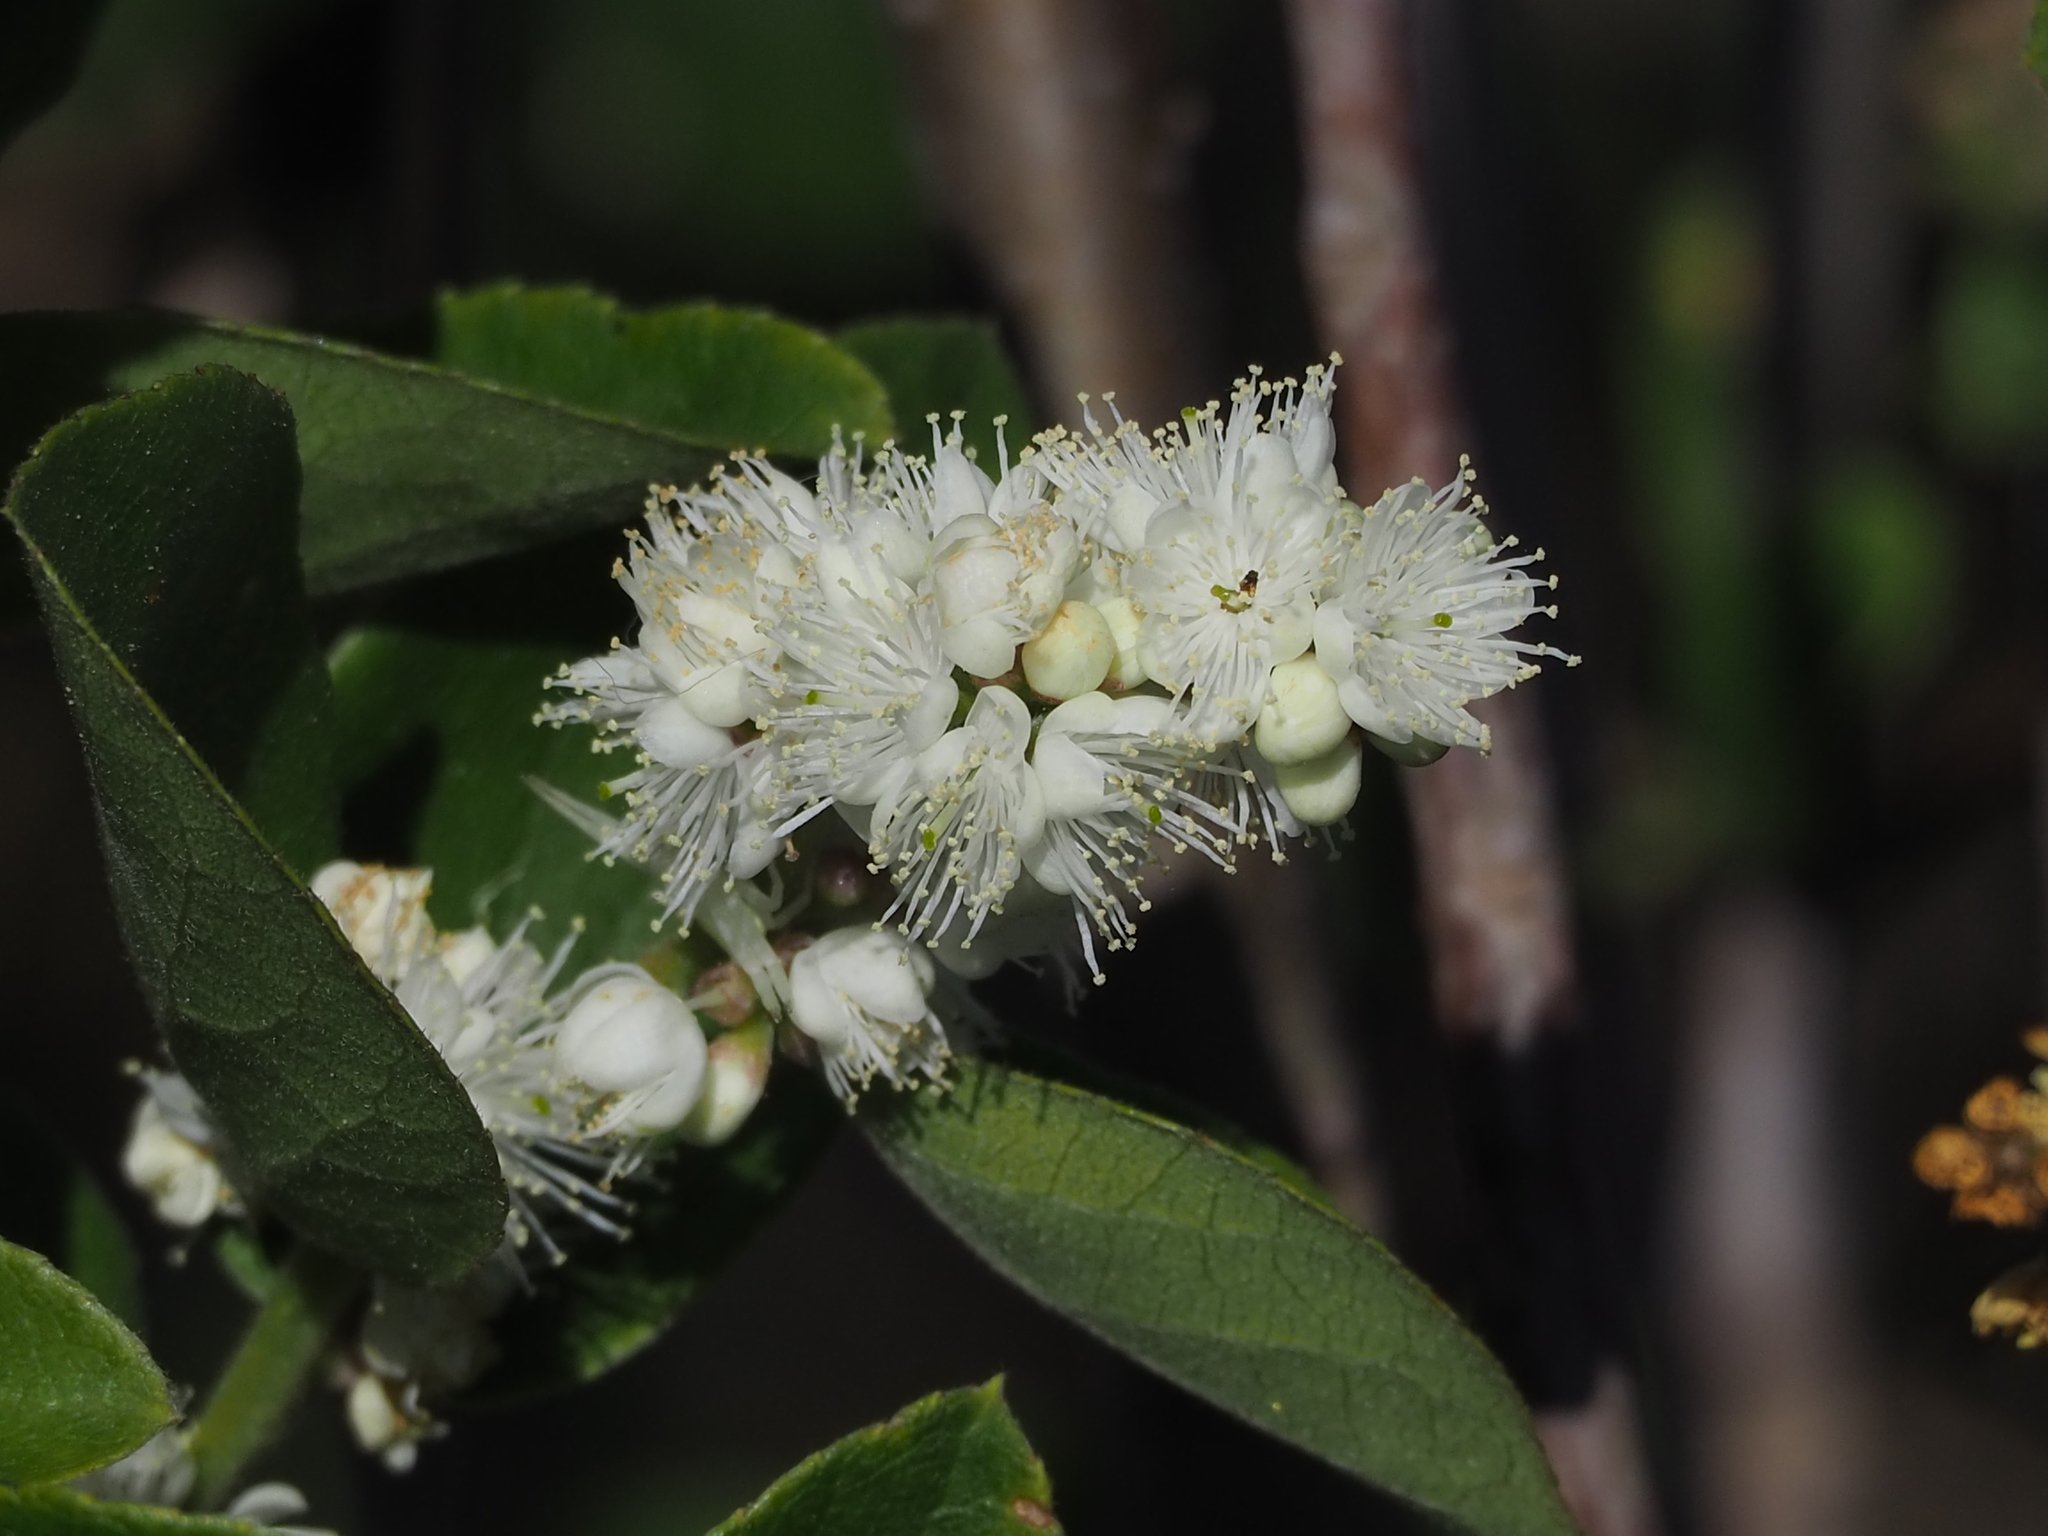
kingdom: Plantae
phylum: Tracheophyta
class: Magnoliopsida
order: Ericales
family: Symplocaceae
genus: Symplocos
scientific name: Symplocos paniculata
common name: Sapphire-berry
